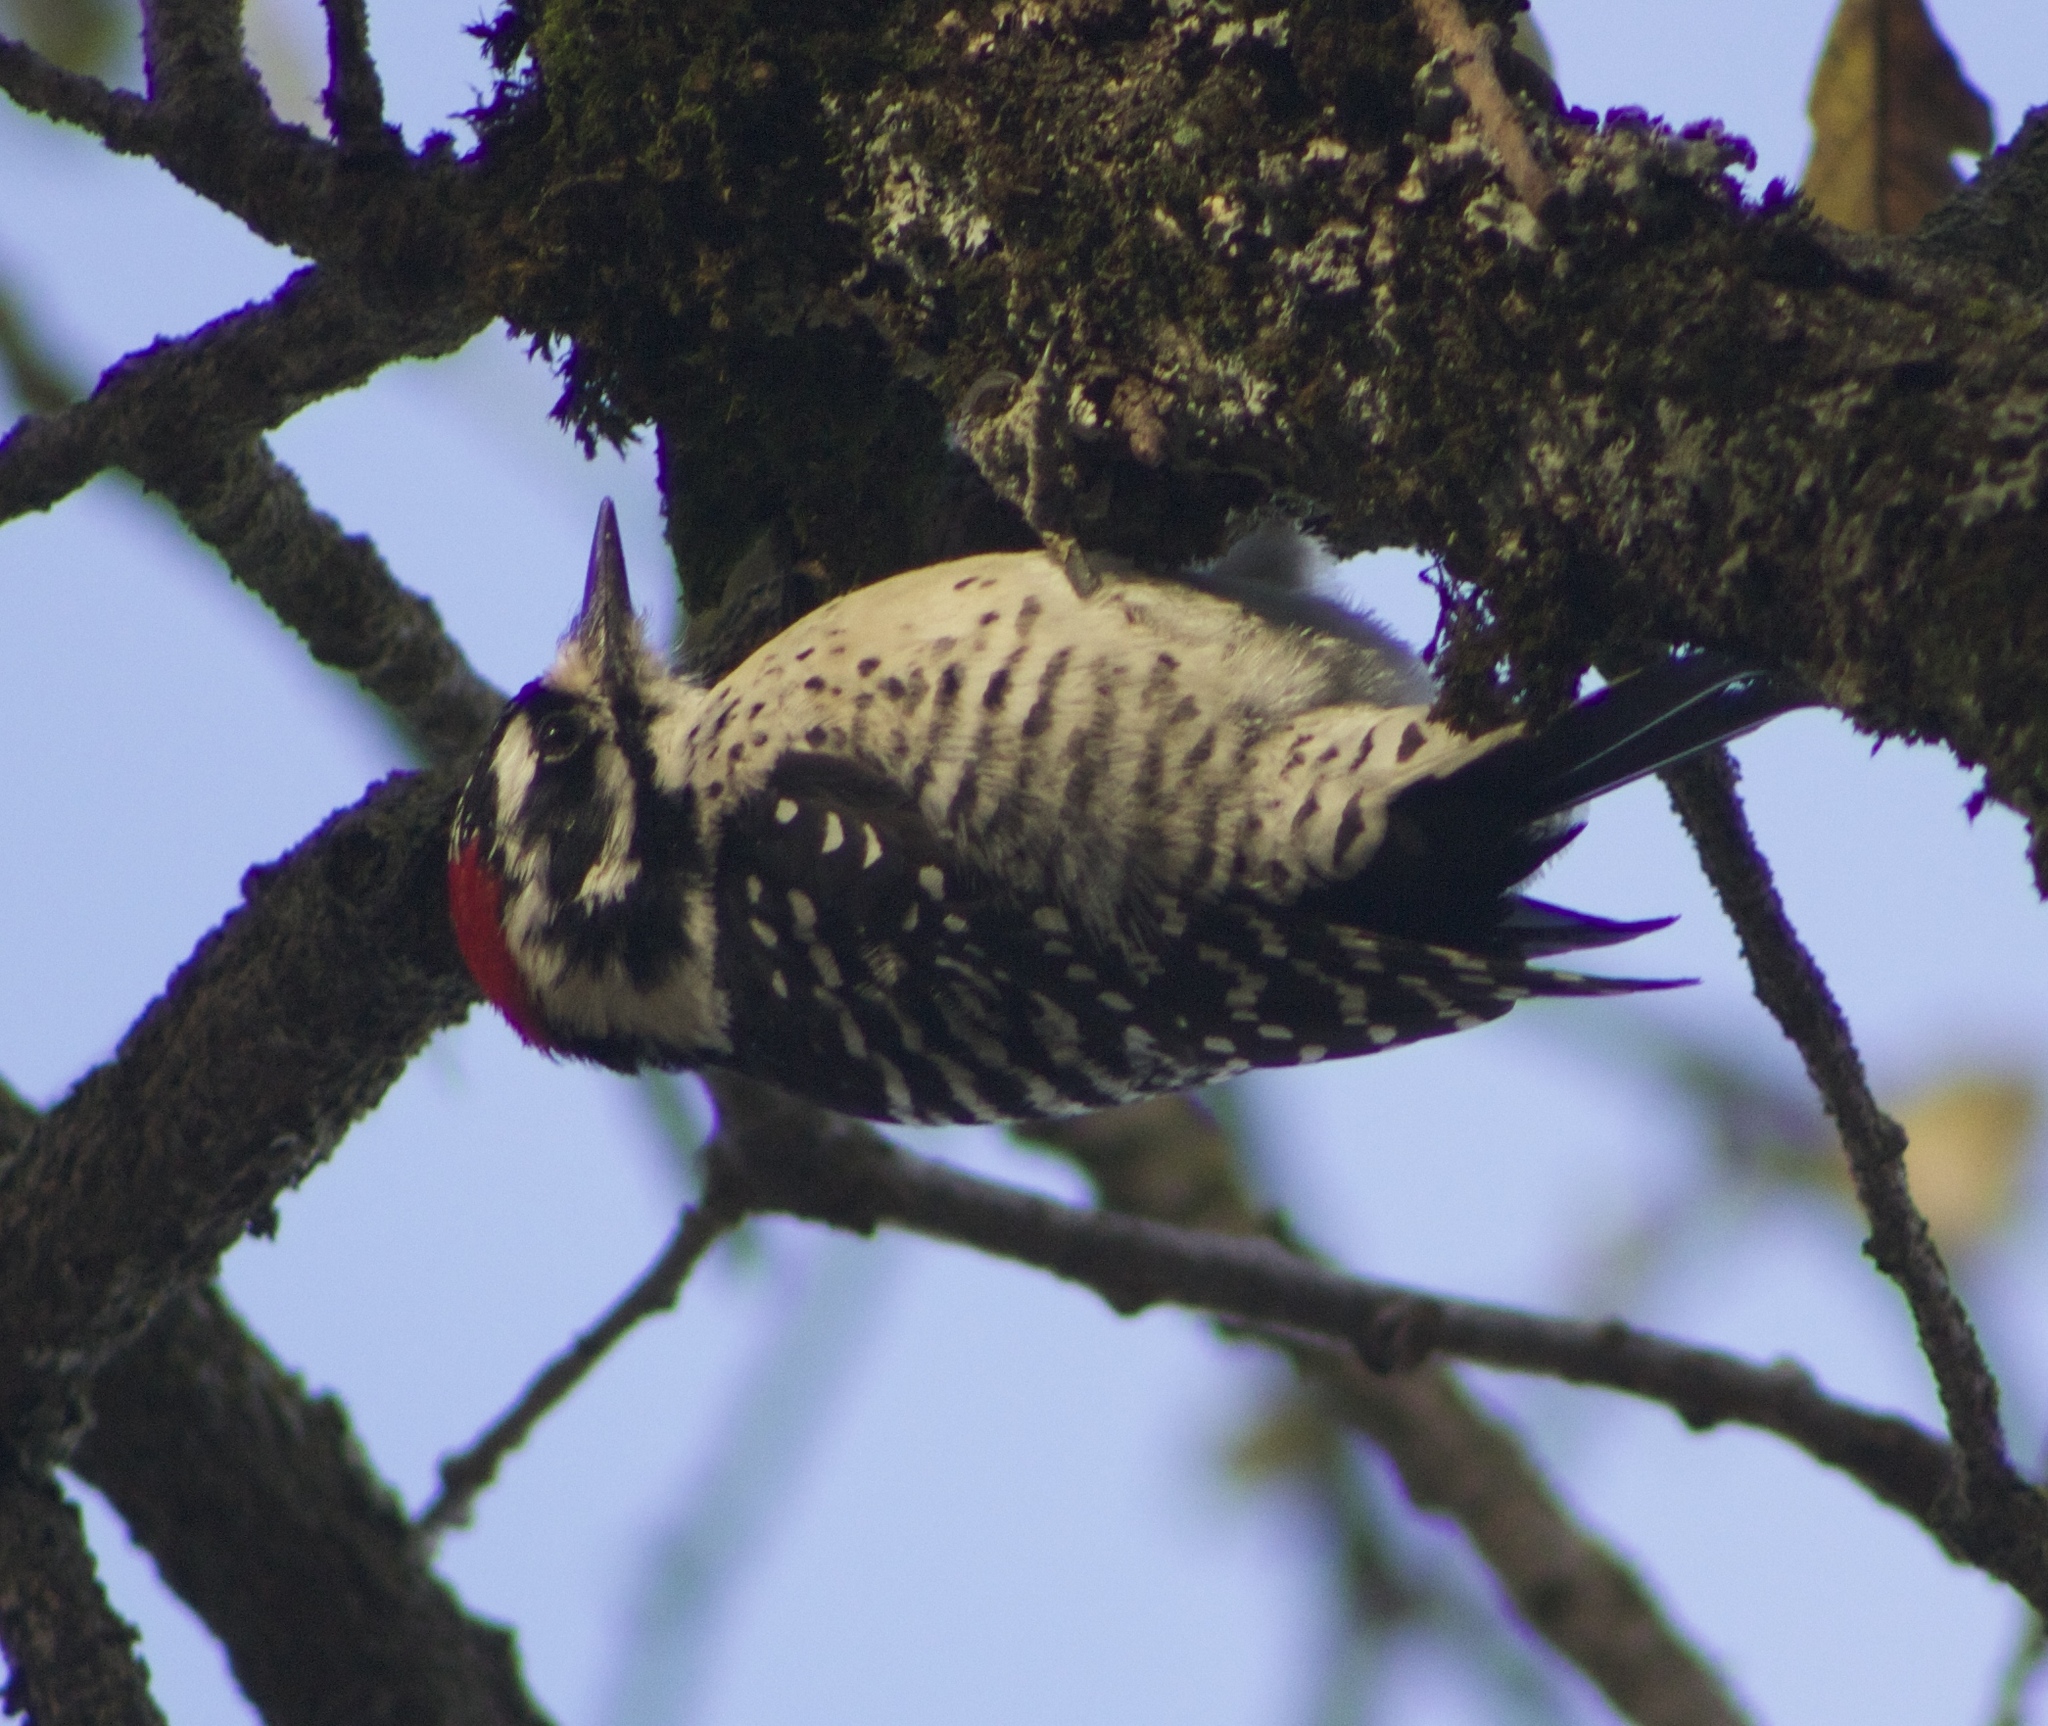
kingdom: Animalia
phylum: Chordata
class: Aves
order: Piciformes
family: Picidae
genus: Dryobates
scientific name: Dryobates nuttallii
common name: Nuttall's woodpecker
